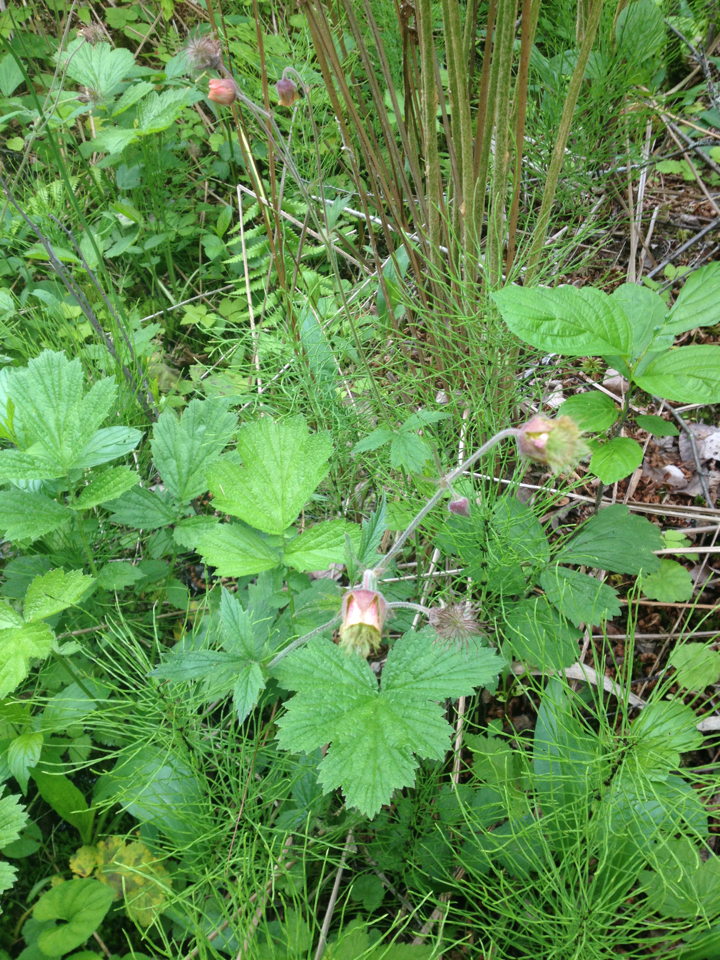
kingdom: Plantae
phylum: Tracheophyta
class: Magnoliopsida
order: Rosales
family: Rosaceae
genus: Geum
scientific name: Geum rivale
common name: Water avens
